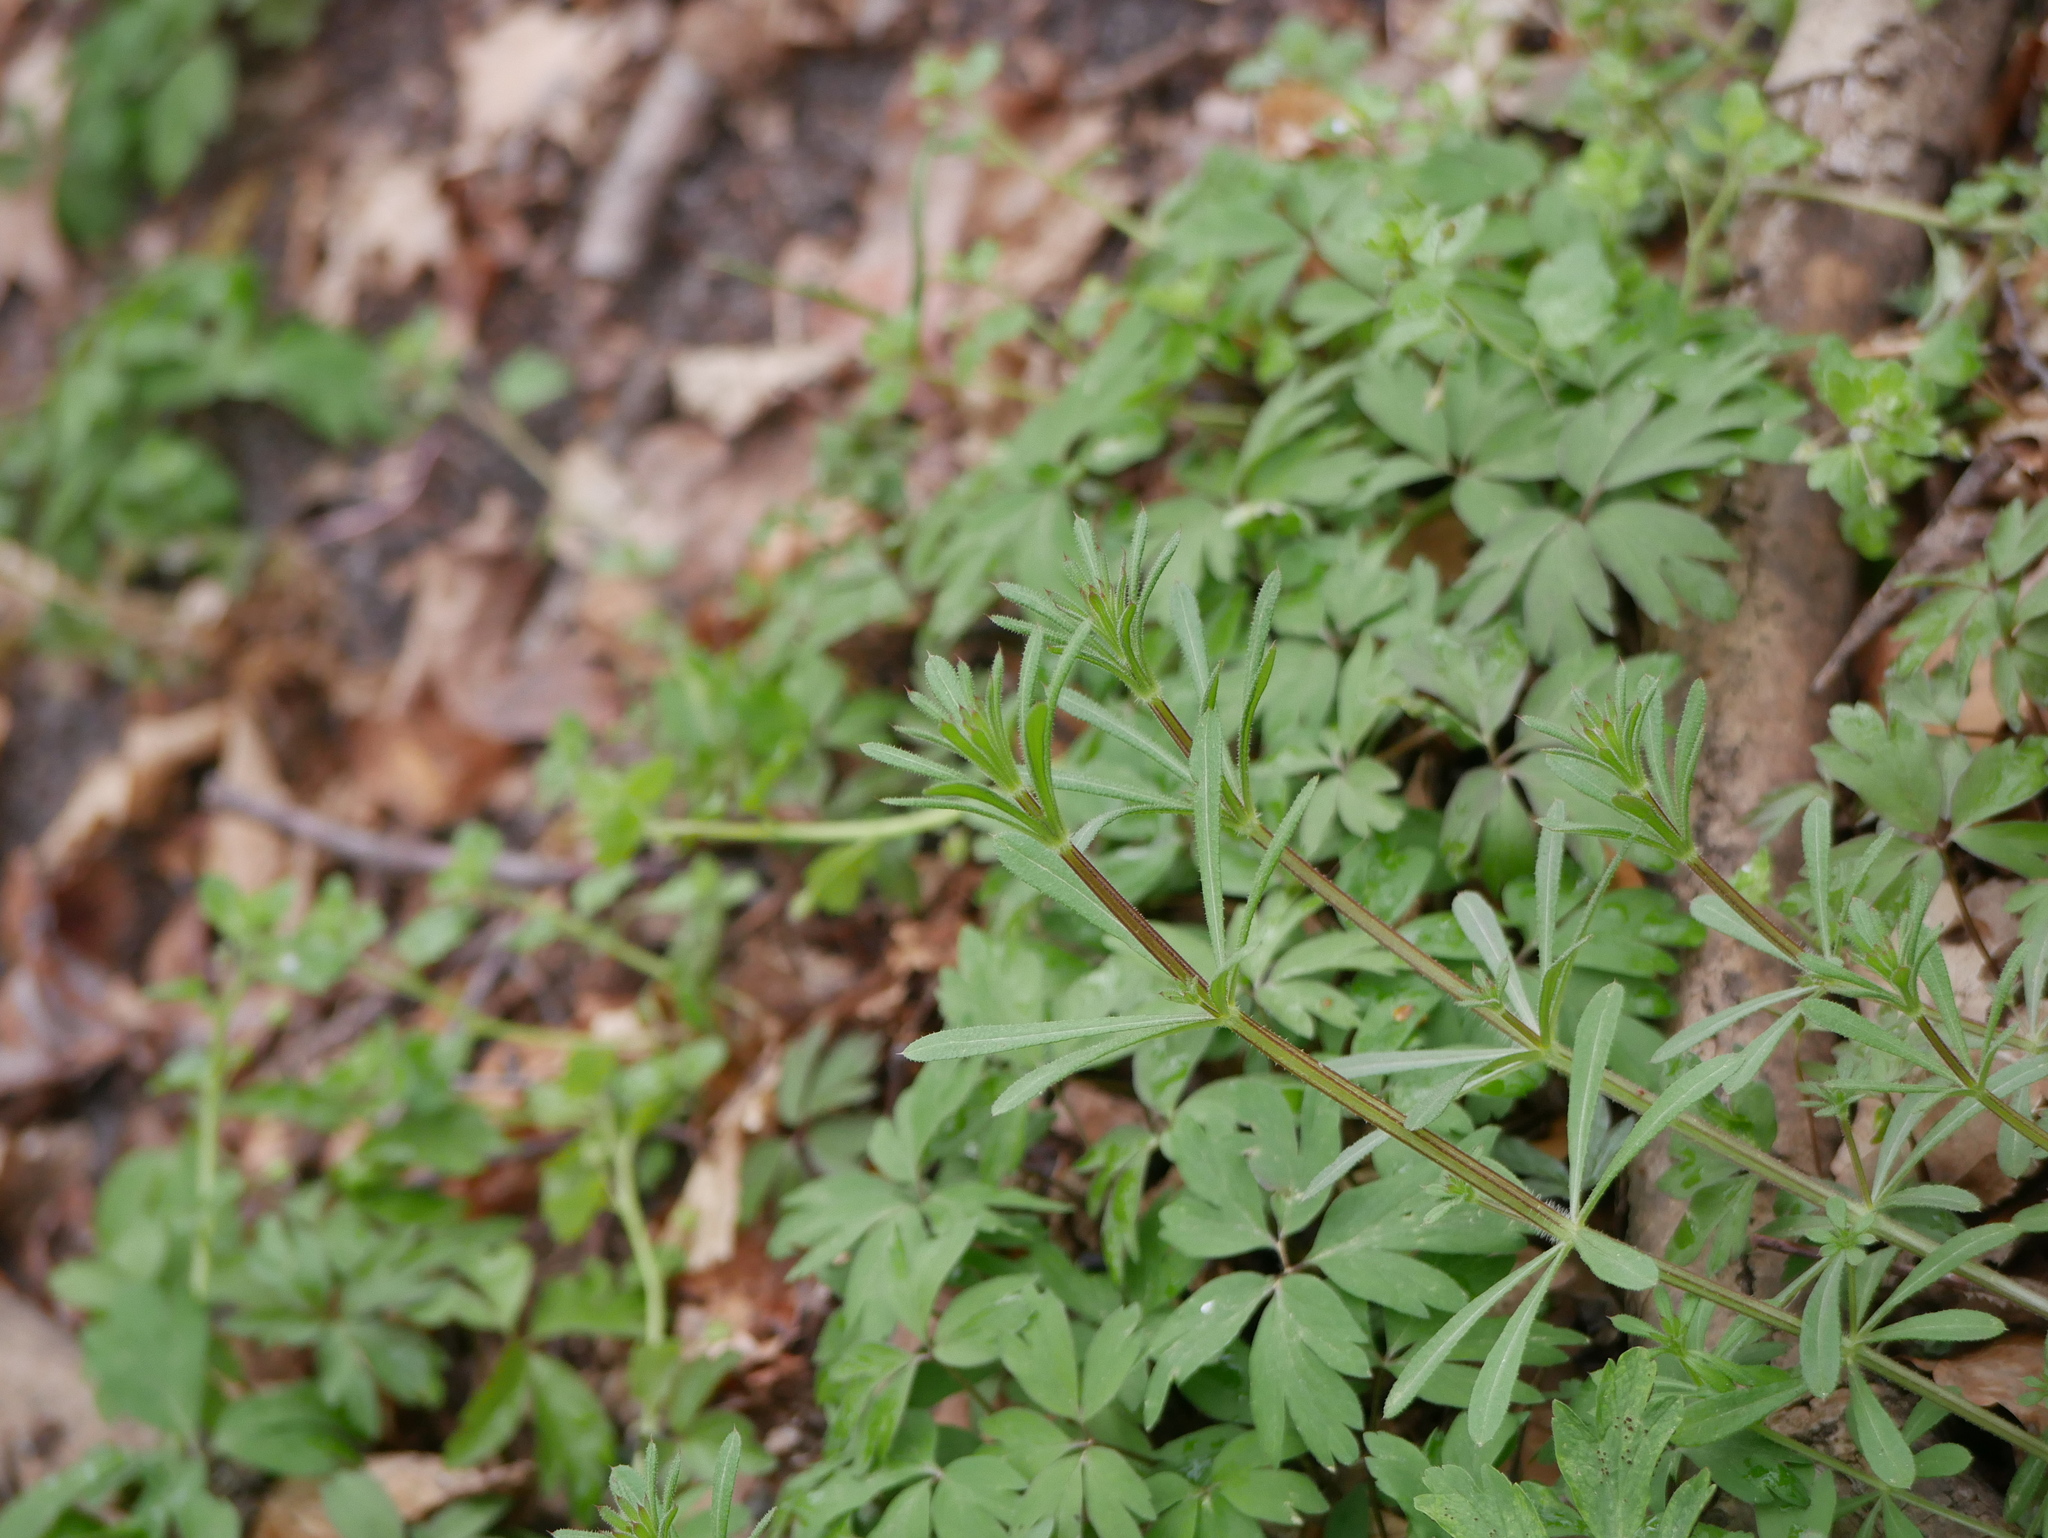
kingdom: Plantae
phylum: Tracheophyta
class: Magnoliopsida
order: Gentianales
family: Rubiaceae
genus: Galium
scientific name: Galium aparine
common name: Cleavers
